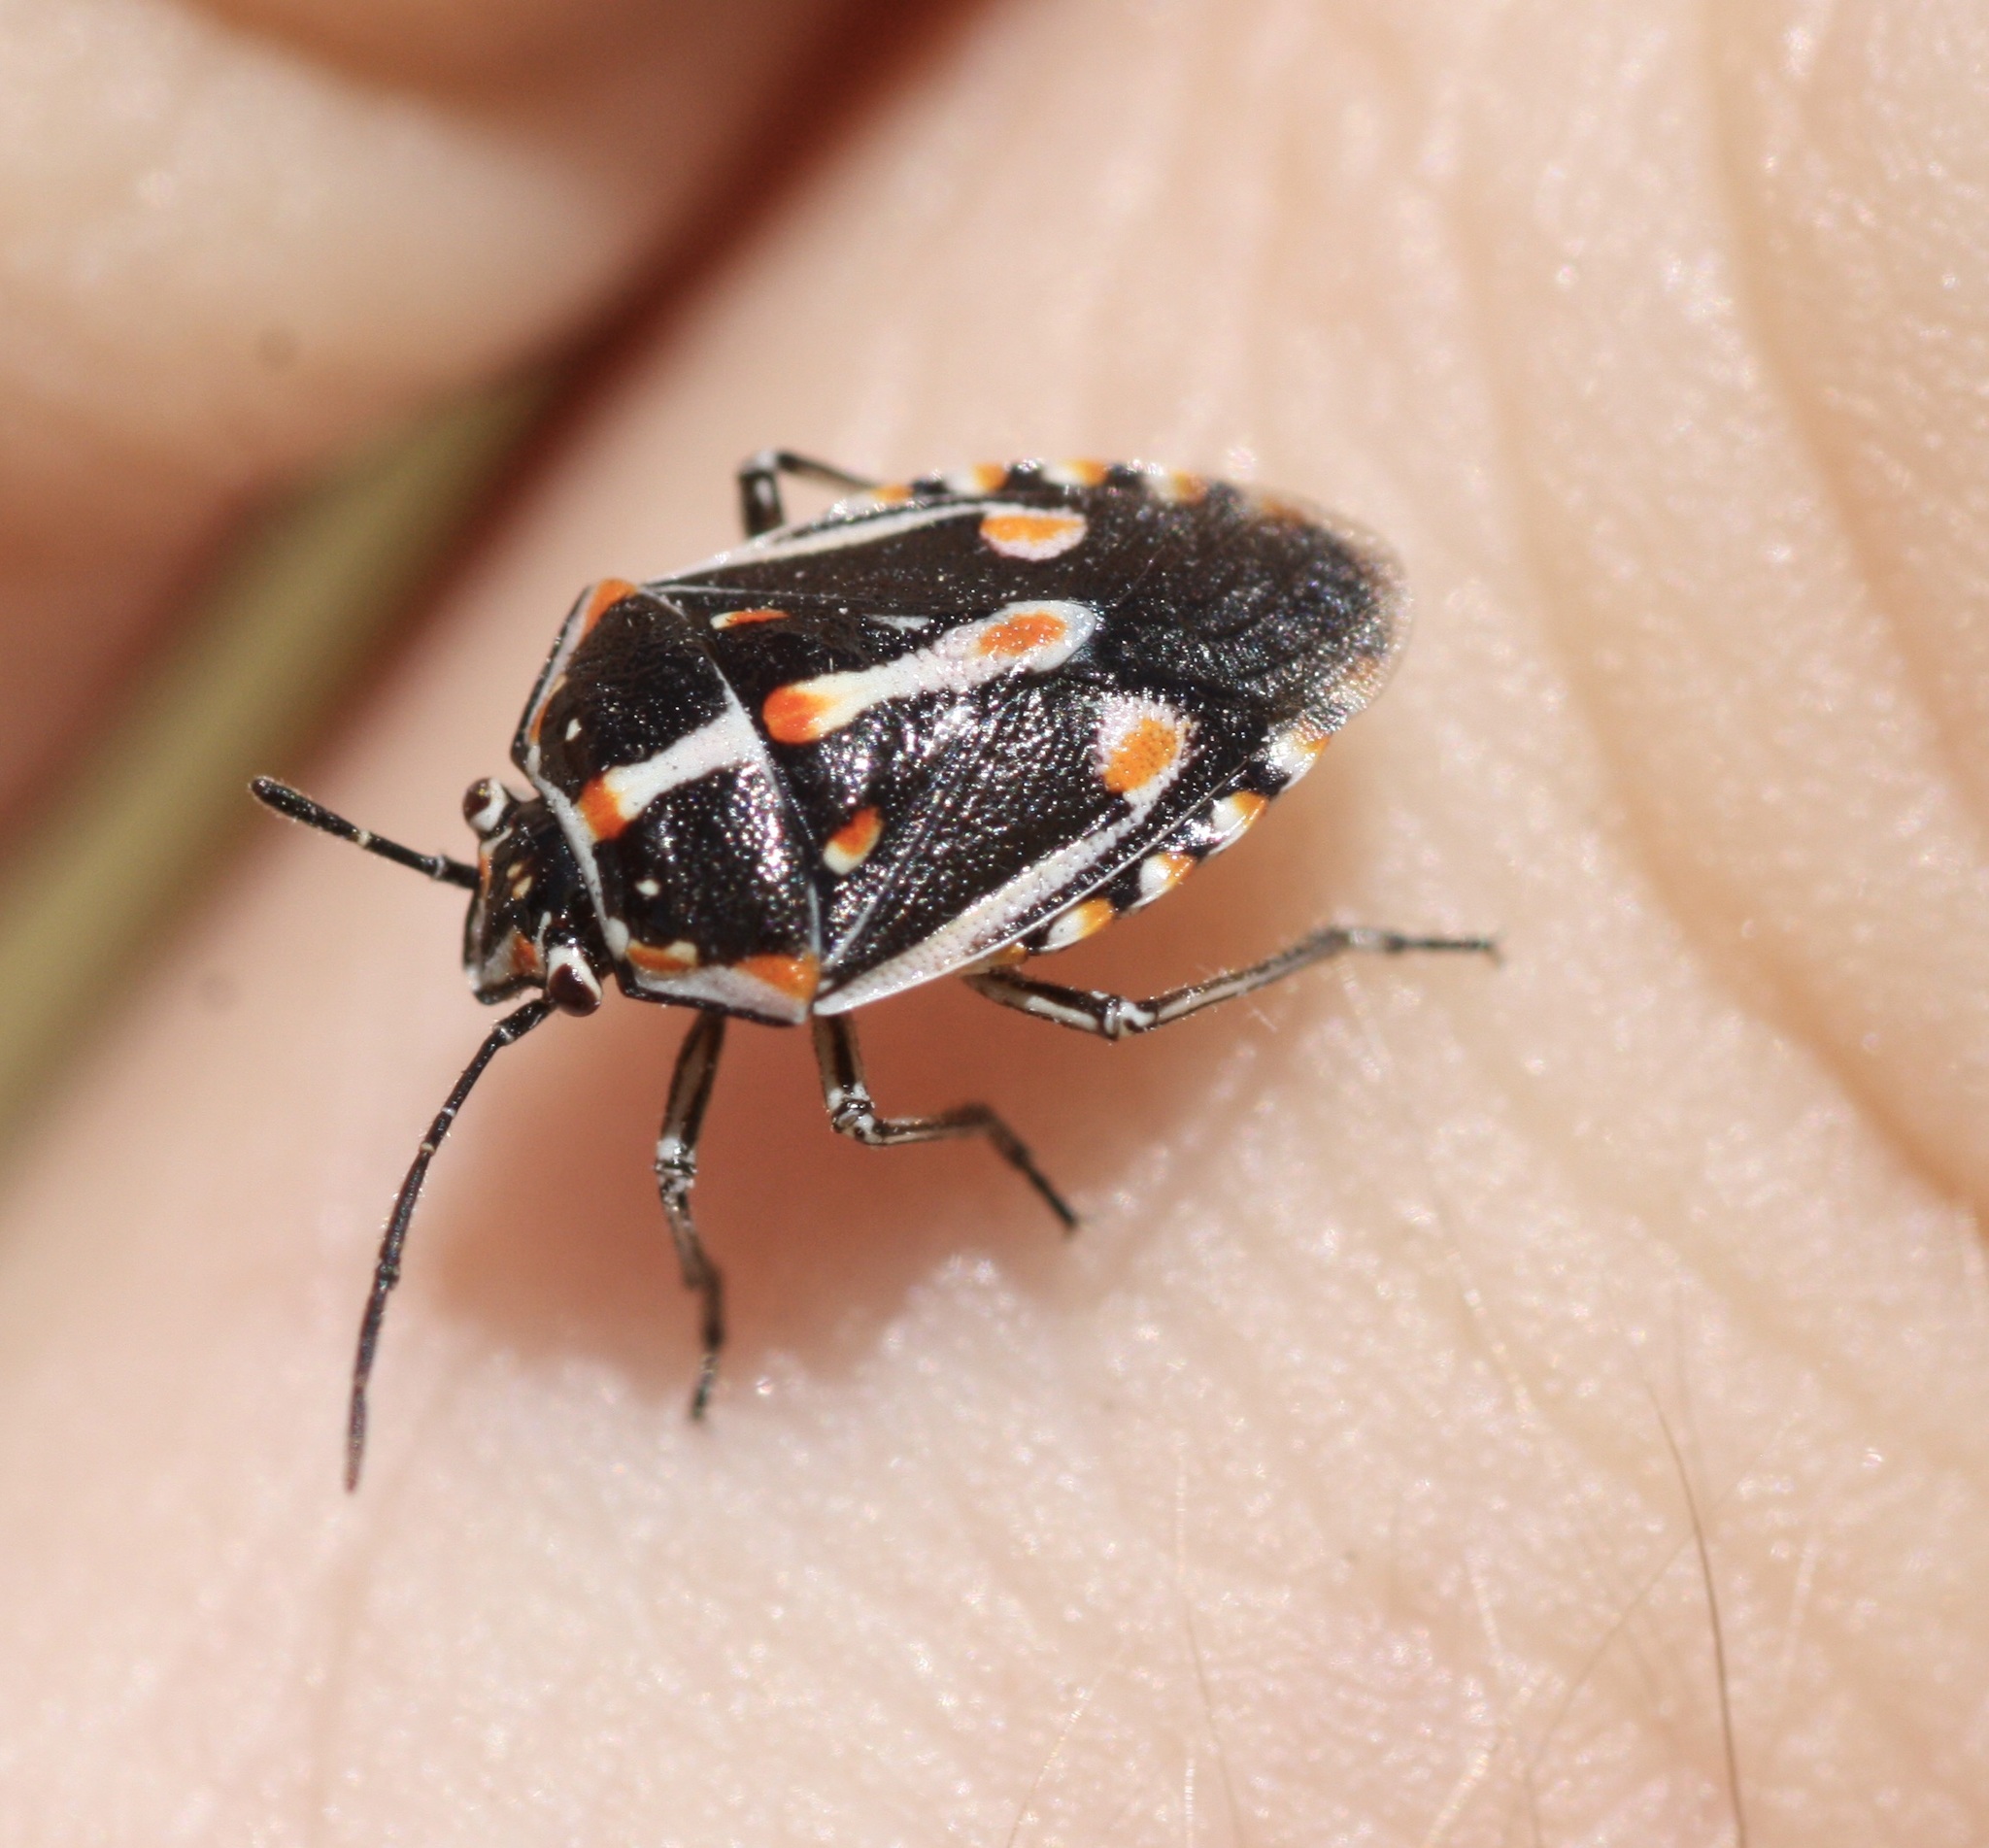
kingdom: Animalia
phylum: Arthropoda
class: Insecta
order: Hemiptera
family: Pentatomidae
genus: Bagrada
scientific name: Bagrada hilaris
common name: Bagrada bug
